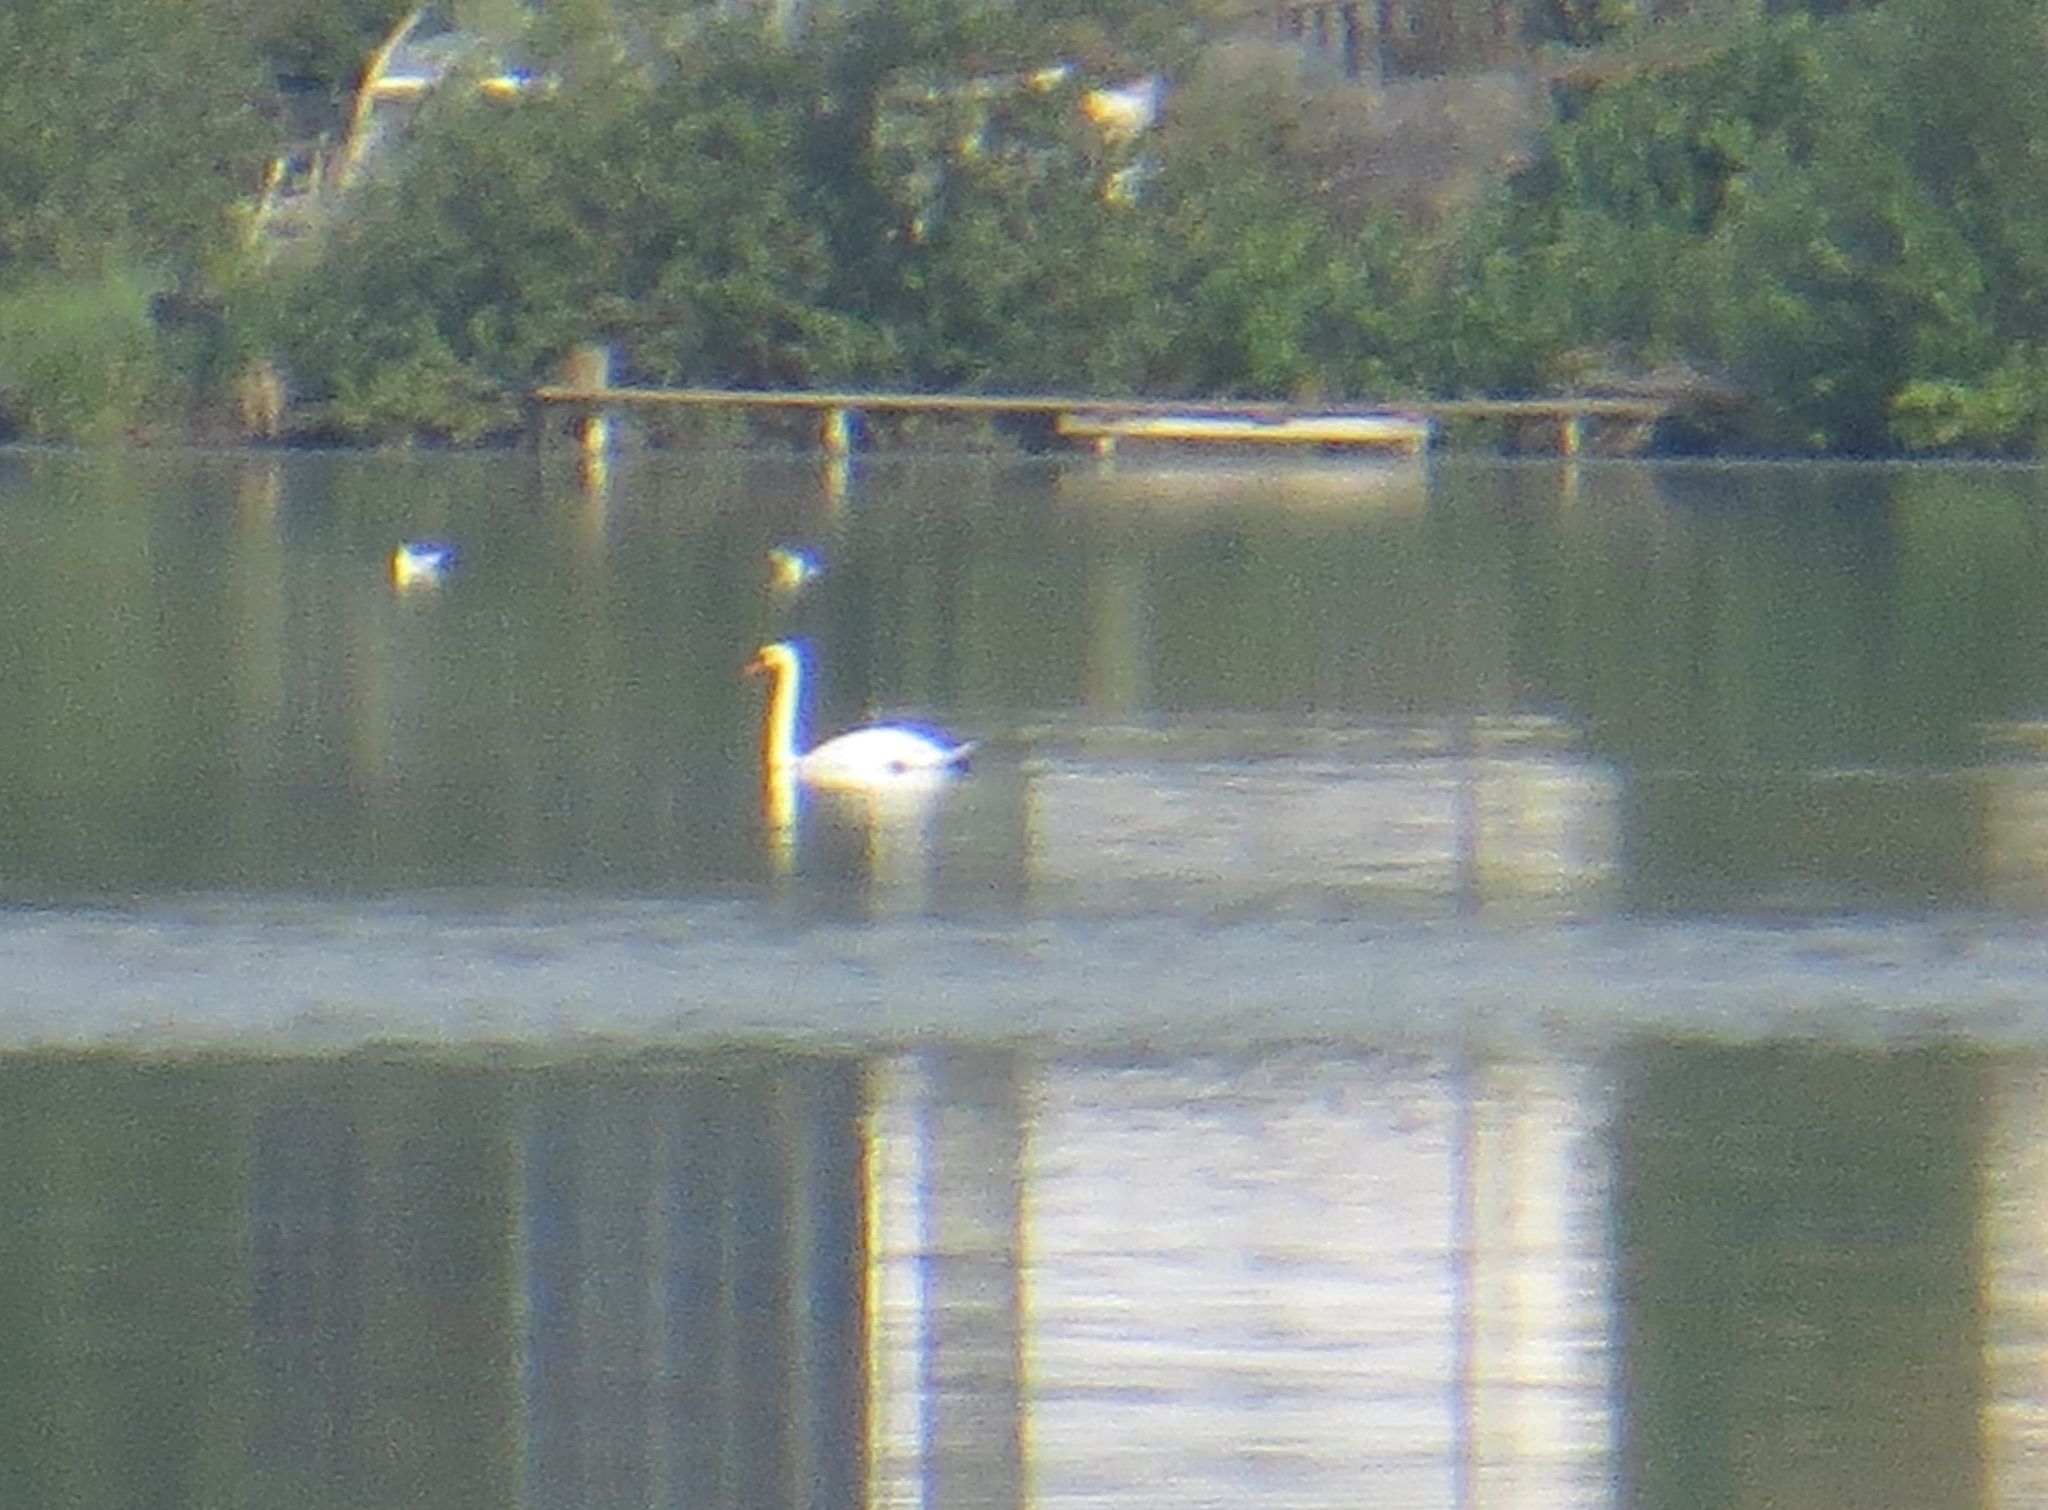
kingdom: Animalia
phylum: Chordata
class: Aves
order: Anseriformes
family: Anatidae
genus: Cygnus
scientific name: Cygnus olor
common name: Mute swan
